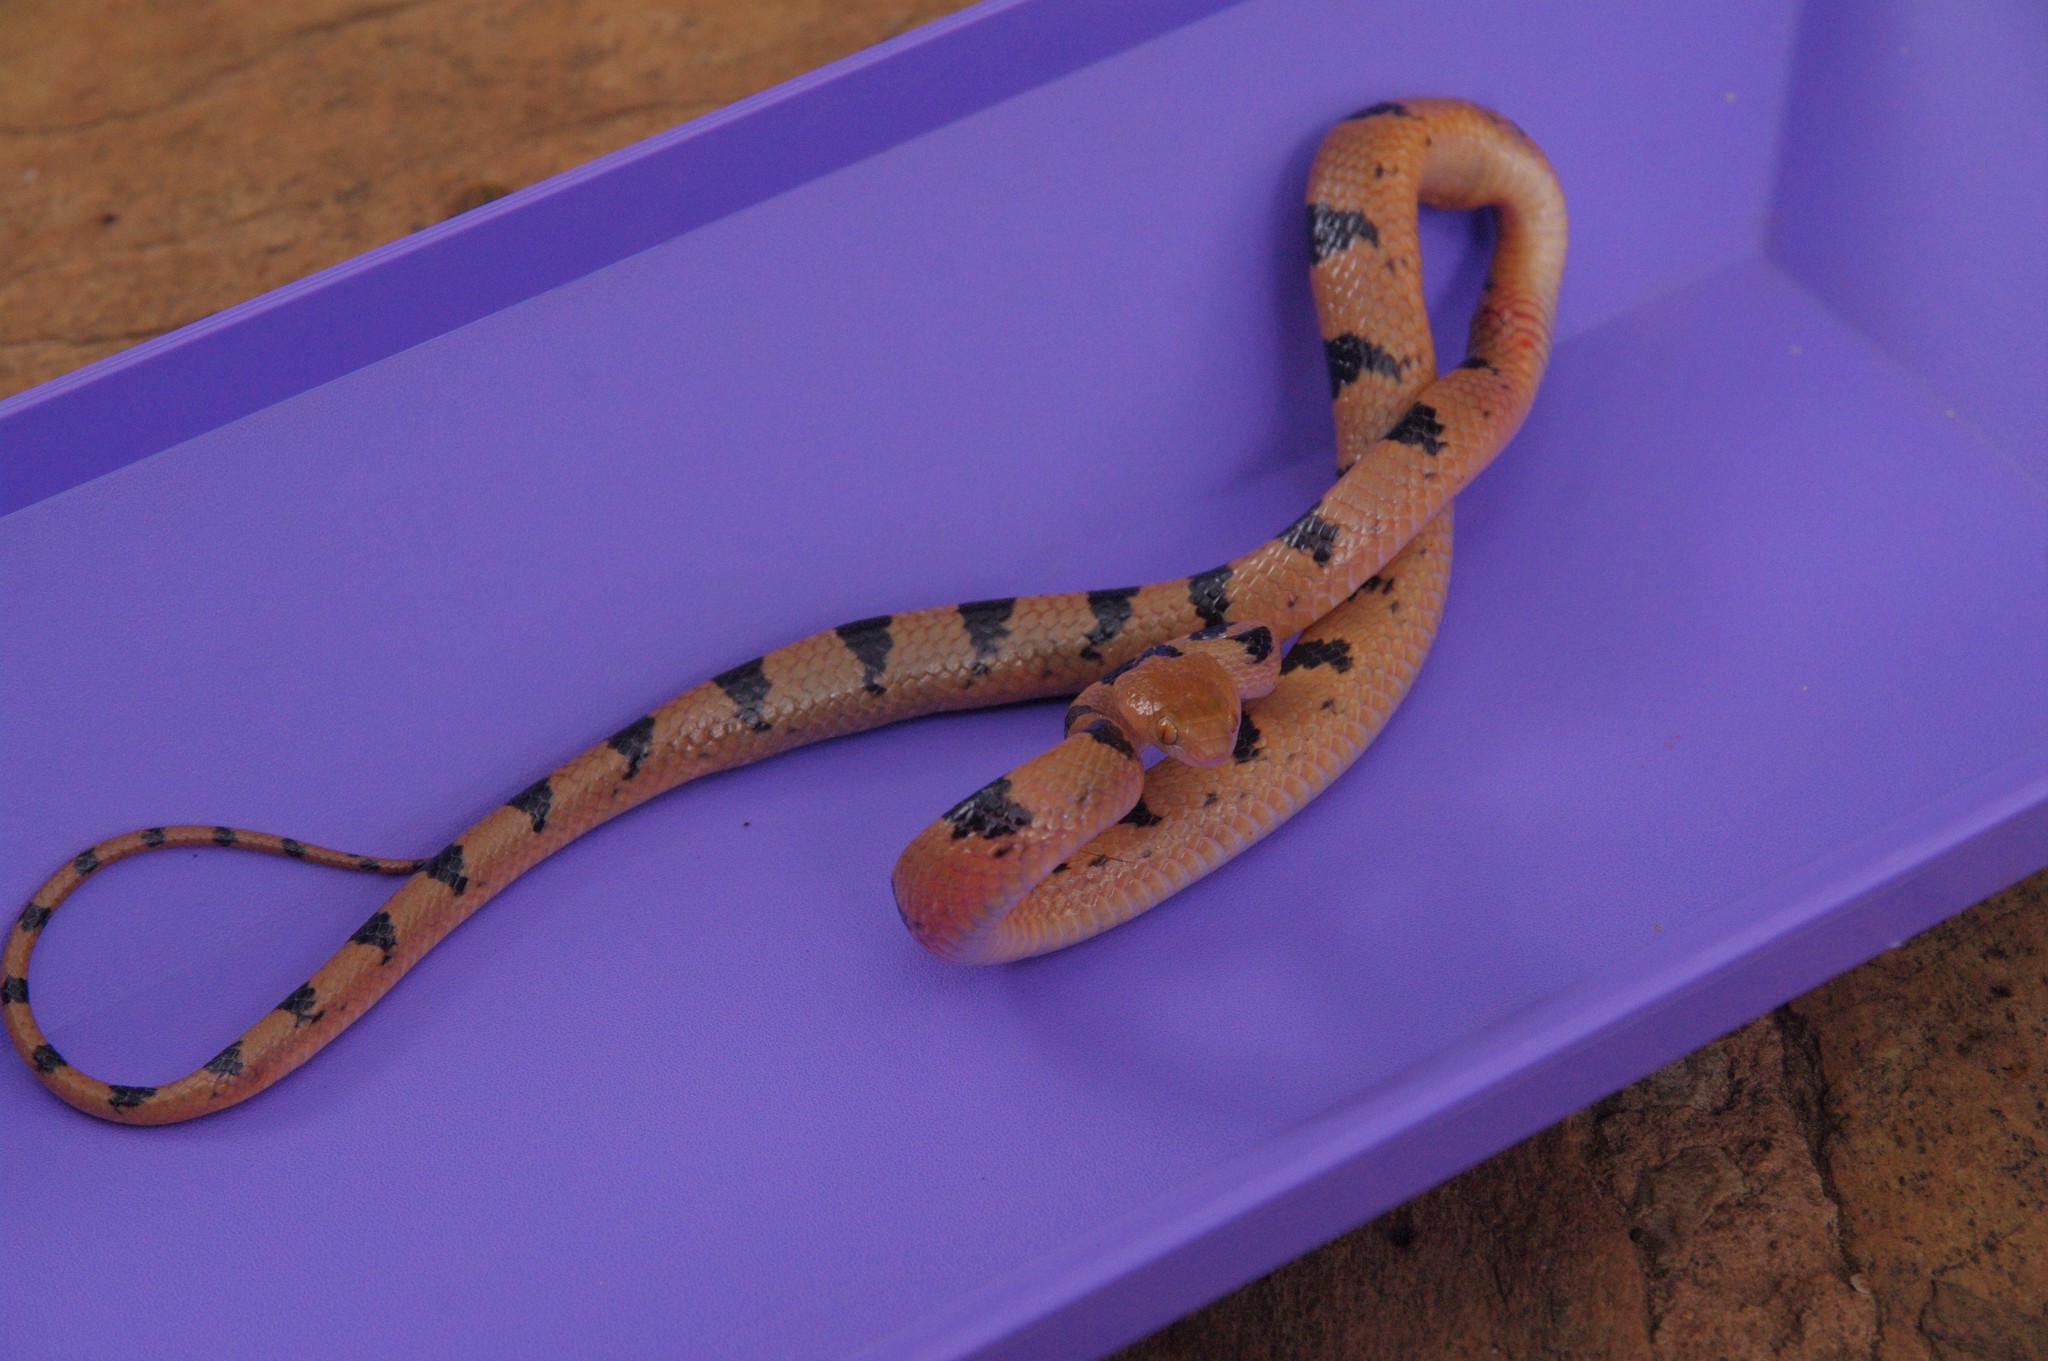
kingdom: Animalia
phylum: Chordata
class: Squamata
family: Colubridae
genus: Telescopus
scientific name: Telescopus semiannulatus
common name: Common tiger snake
